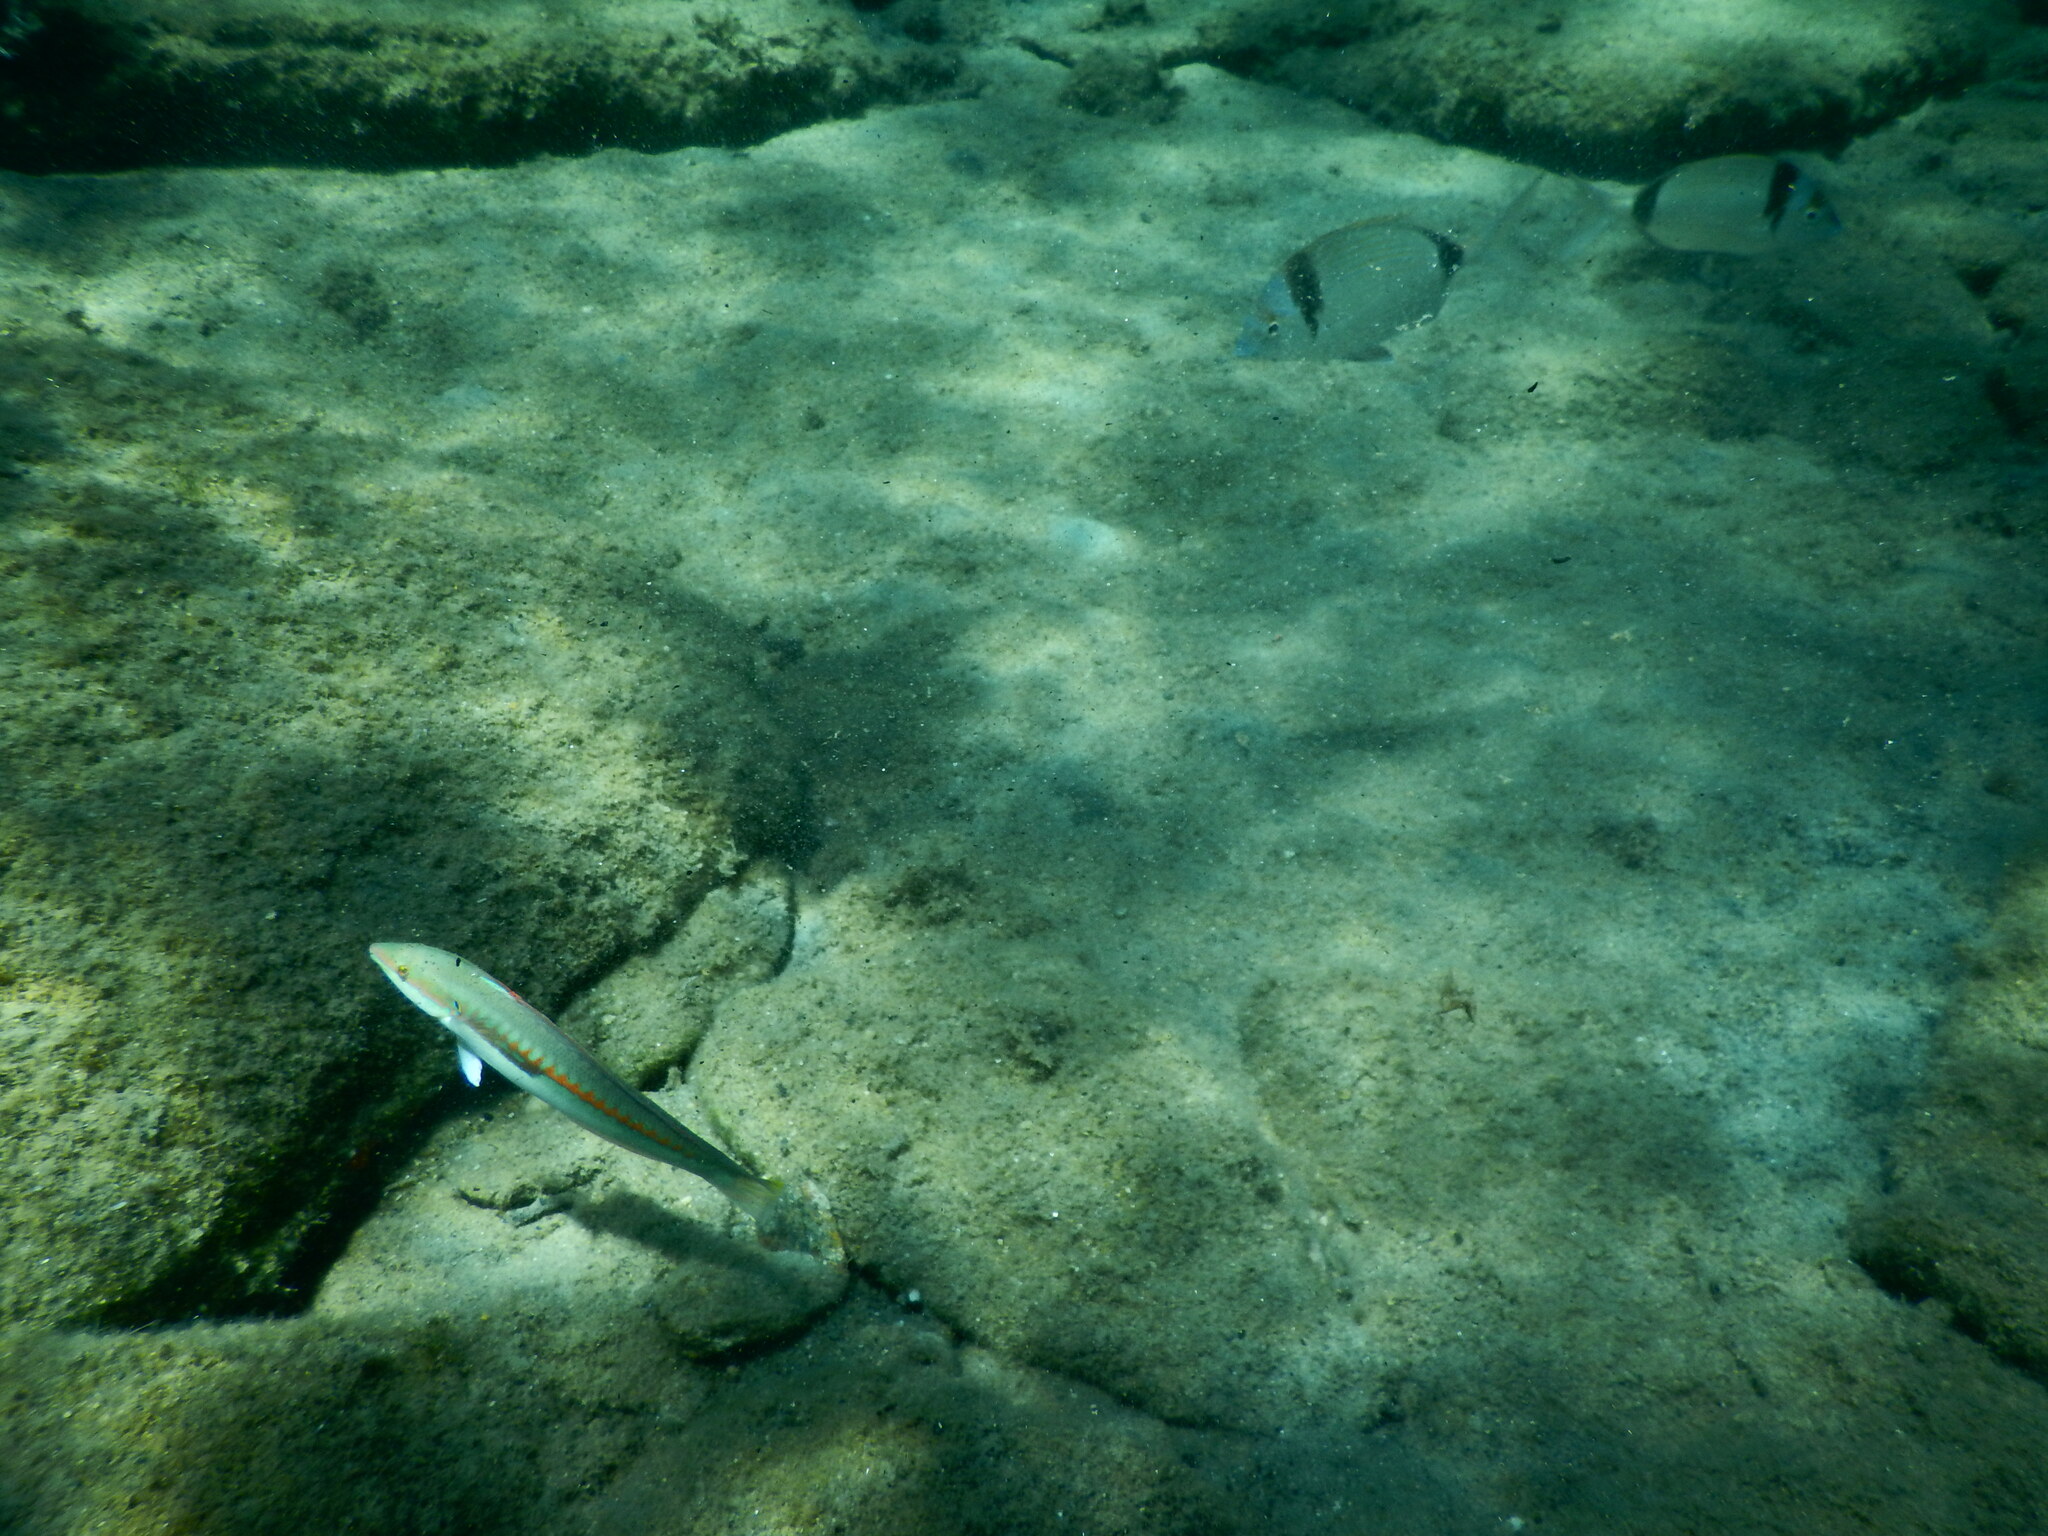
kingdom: Animalia
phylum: Chordata
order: Perciformes
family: Labridae
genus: Coris
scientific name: Coris julis
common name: Rainbow wrasse
